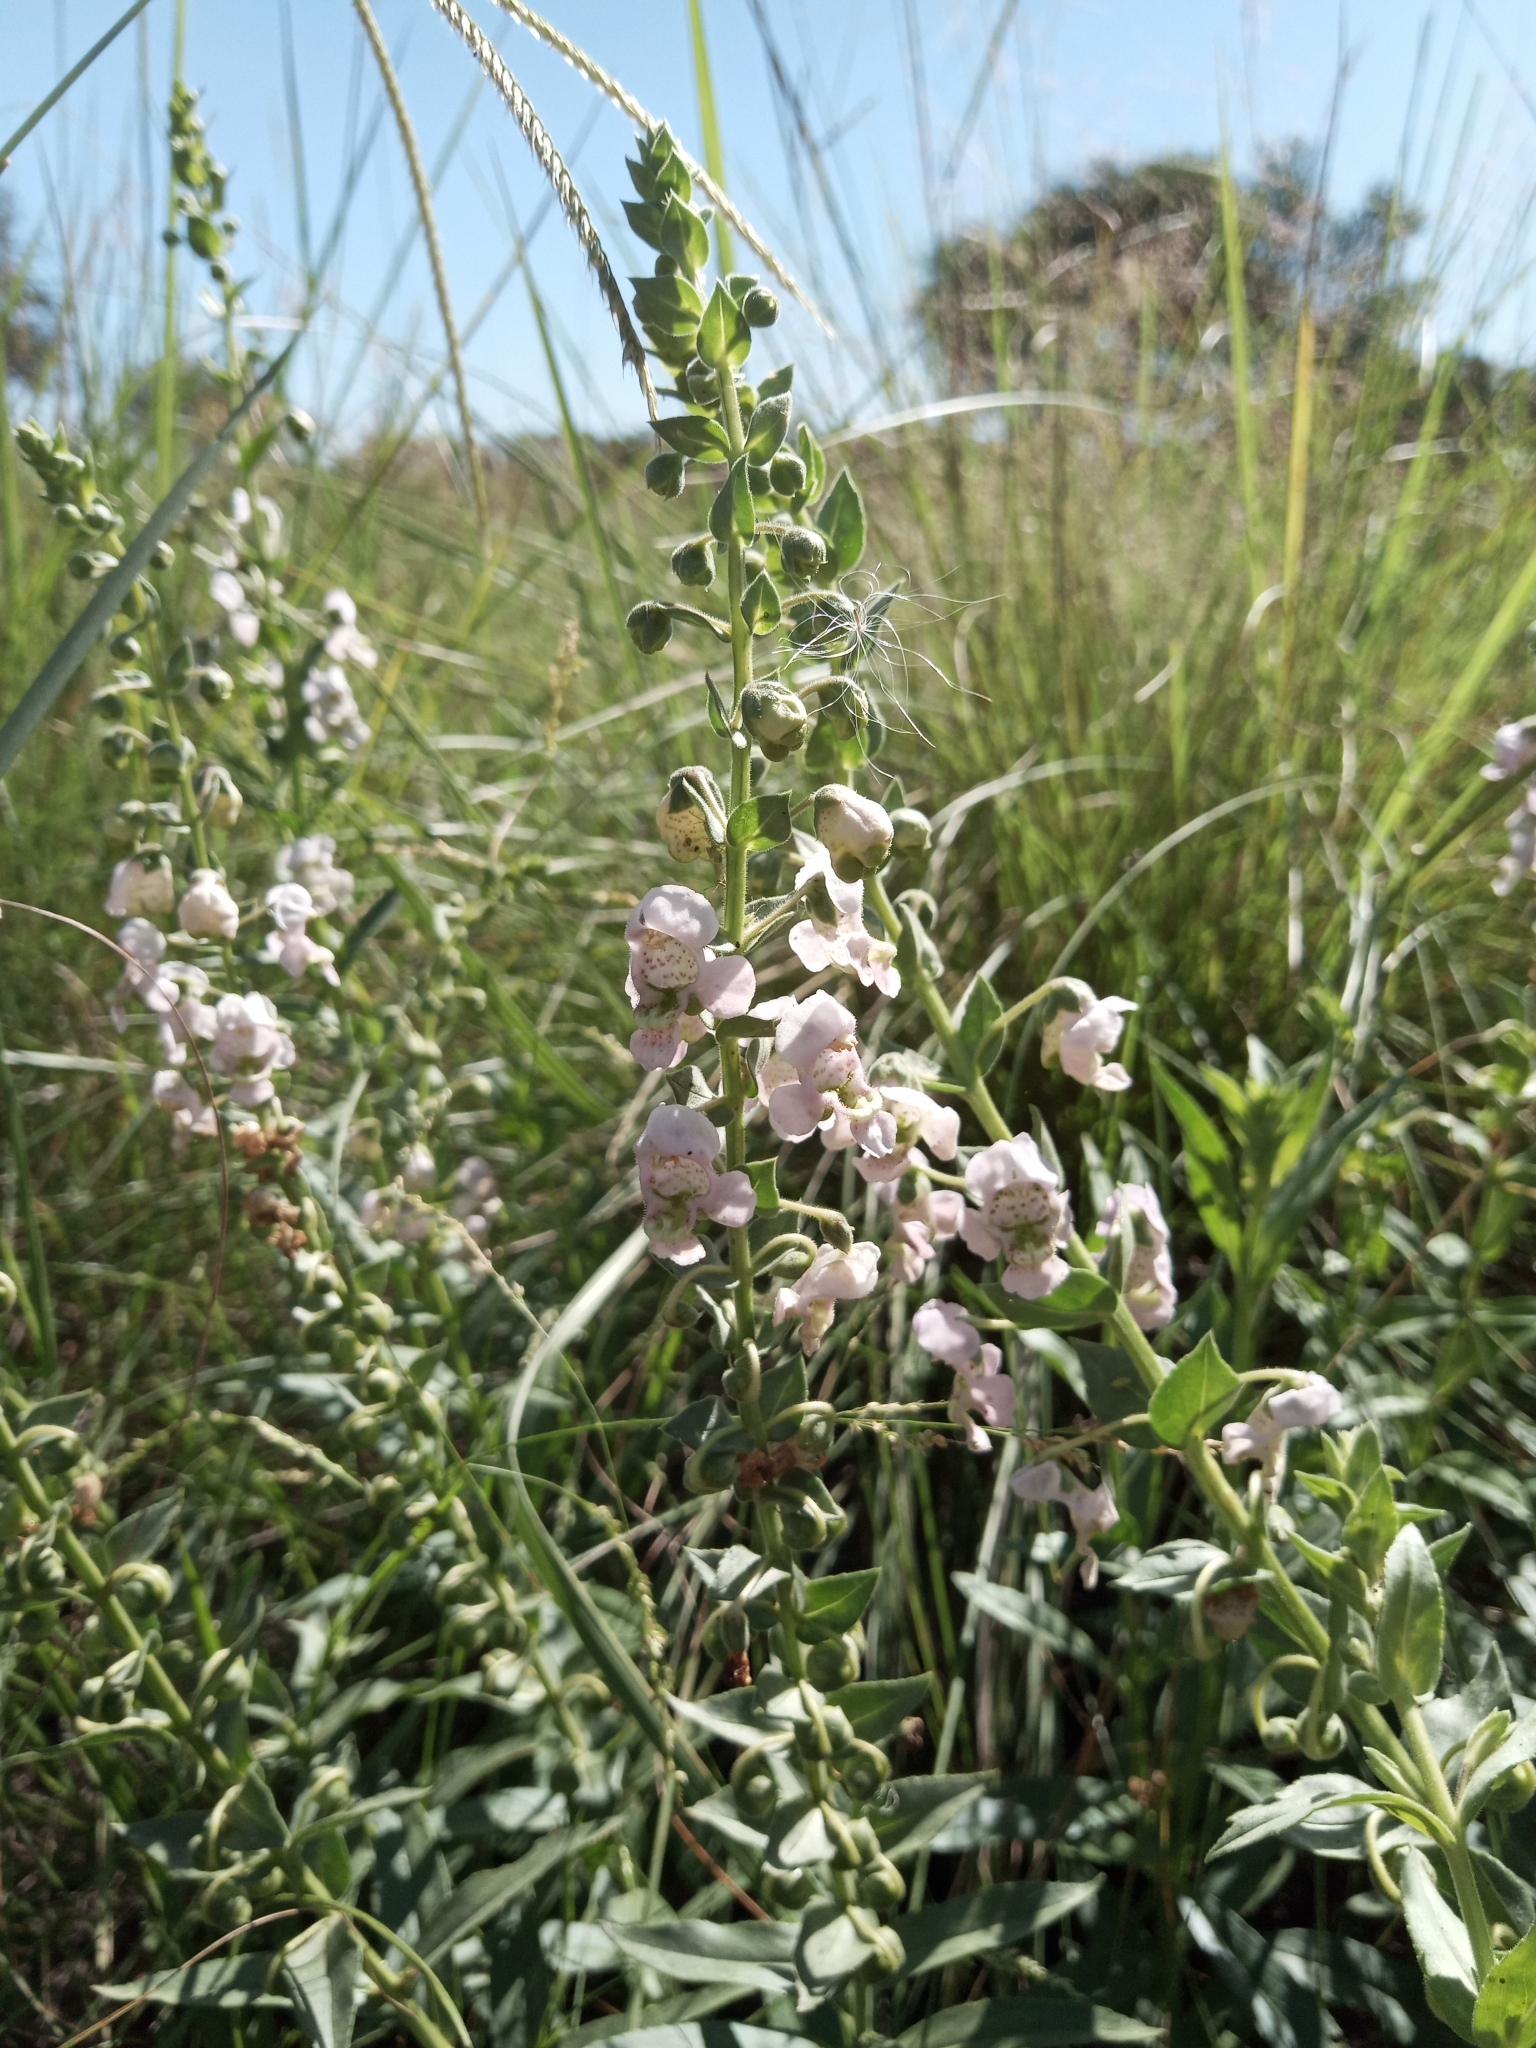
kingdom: Plantae
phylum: Tracheophyta
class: Magnoliopsida
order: Lamiales
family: Plantaginaceae
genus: Angelonia
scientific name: Angelonia integerrima
